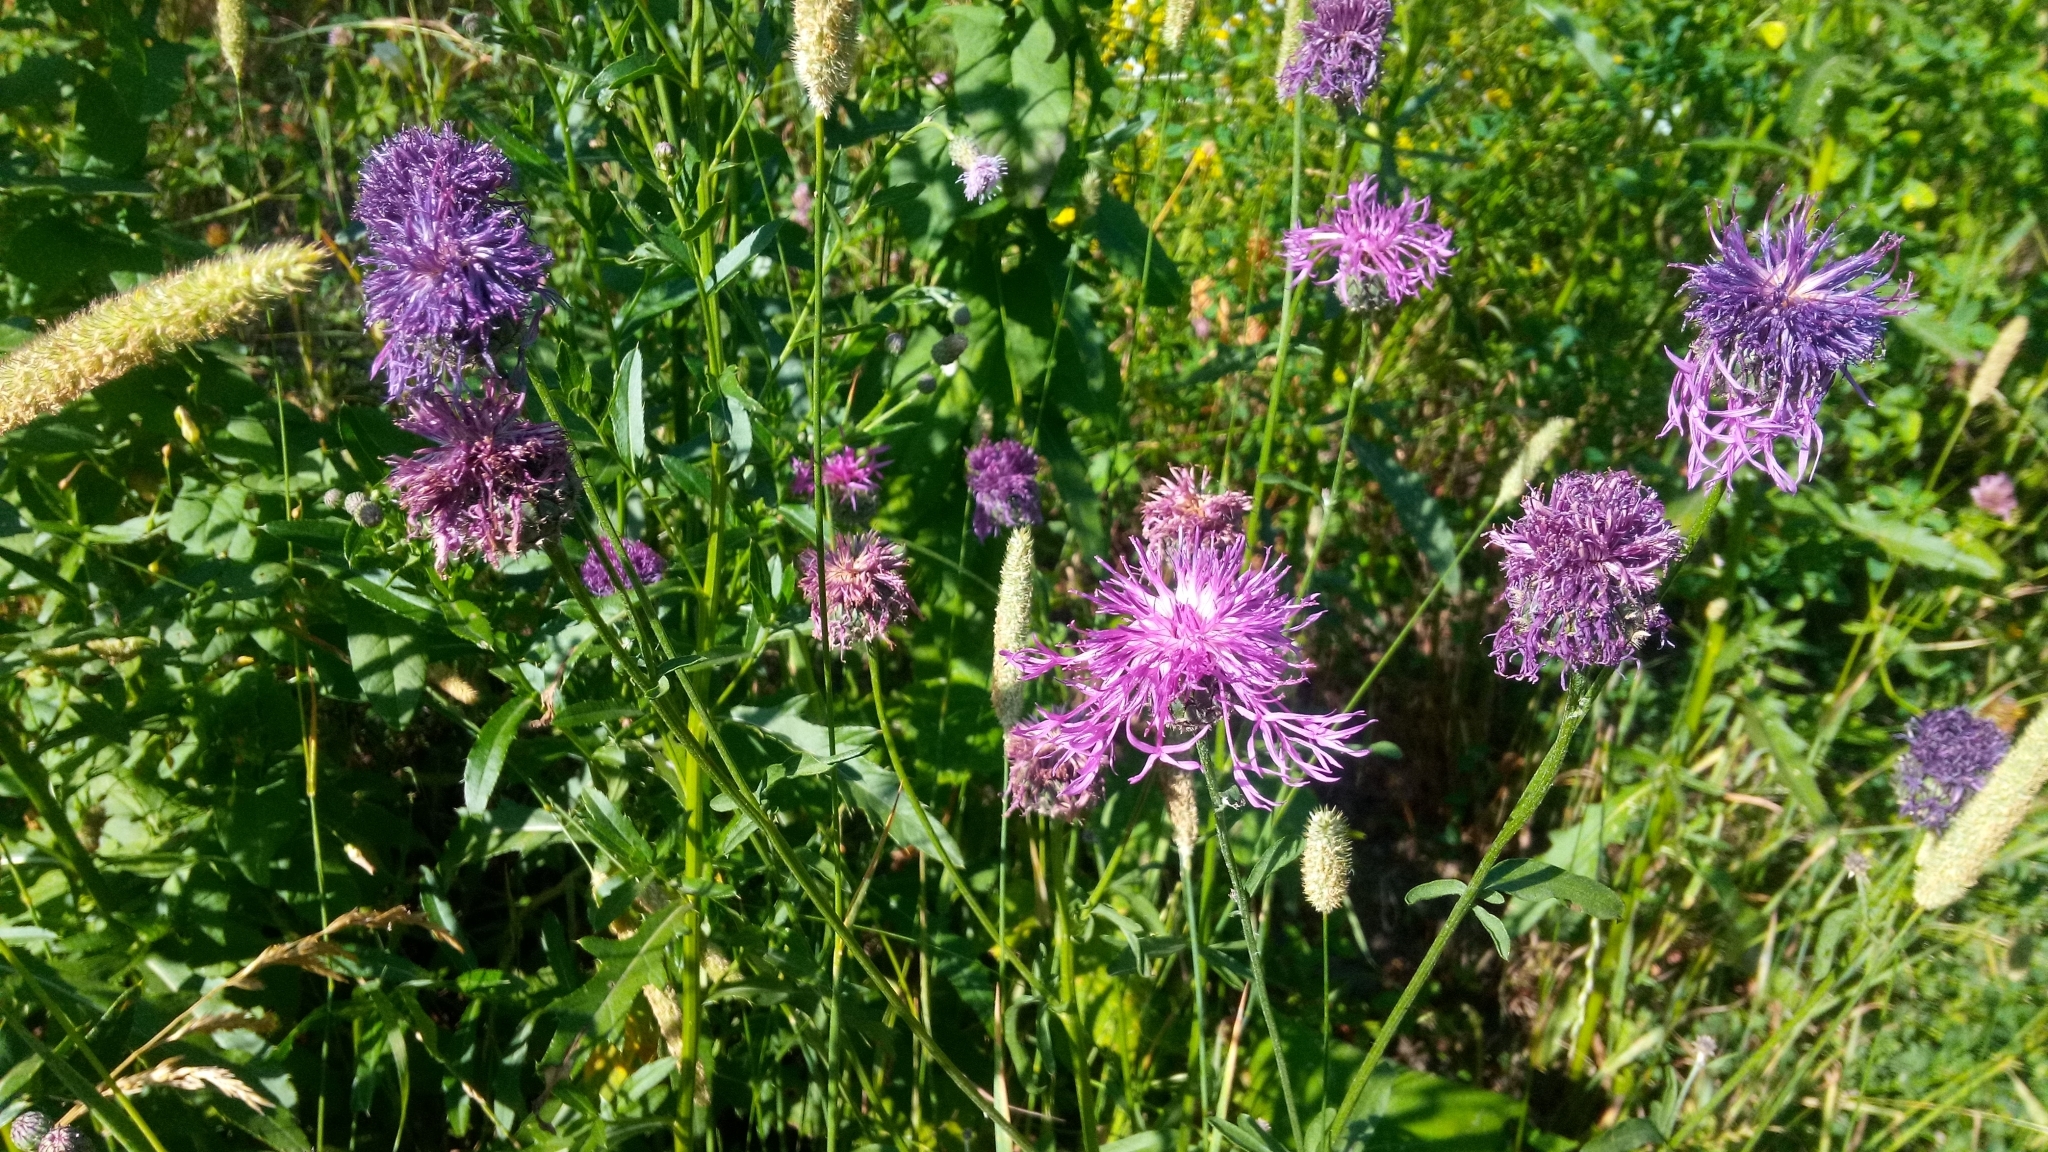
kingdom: Plantae
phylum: Tracheophyta
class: Magnoliopsida
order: Asterales
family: Asteraceae
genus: Centaurea
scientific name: Centaurea scabiosa
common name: Greater knapweed
